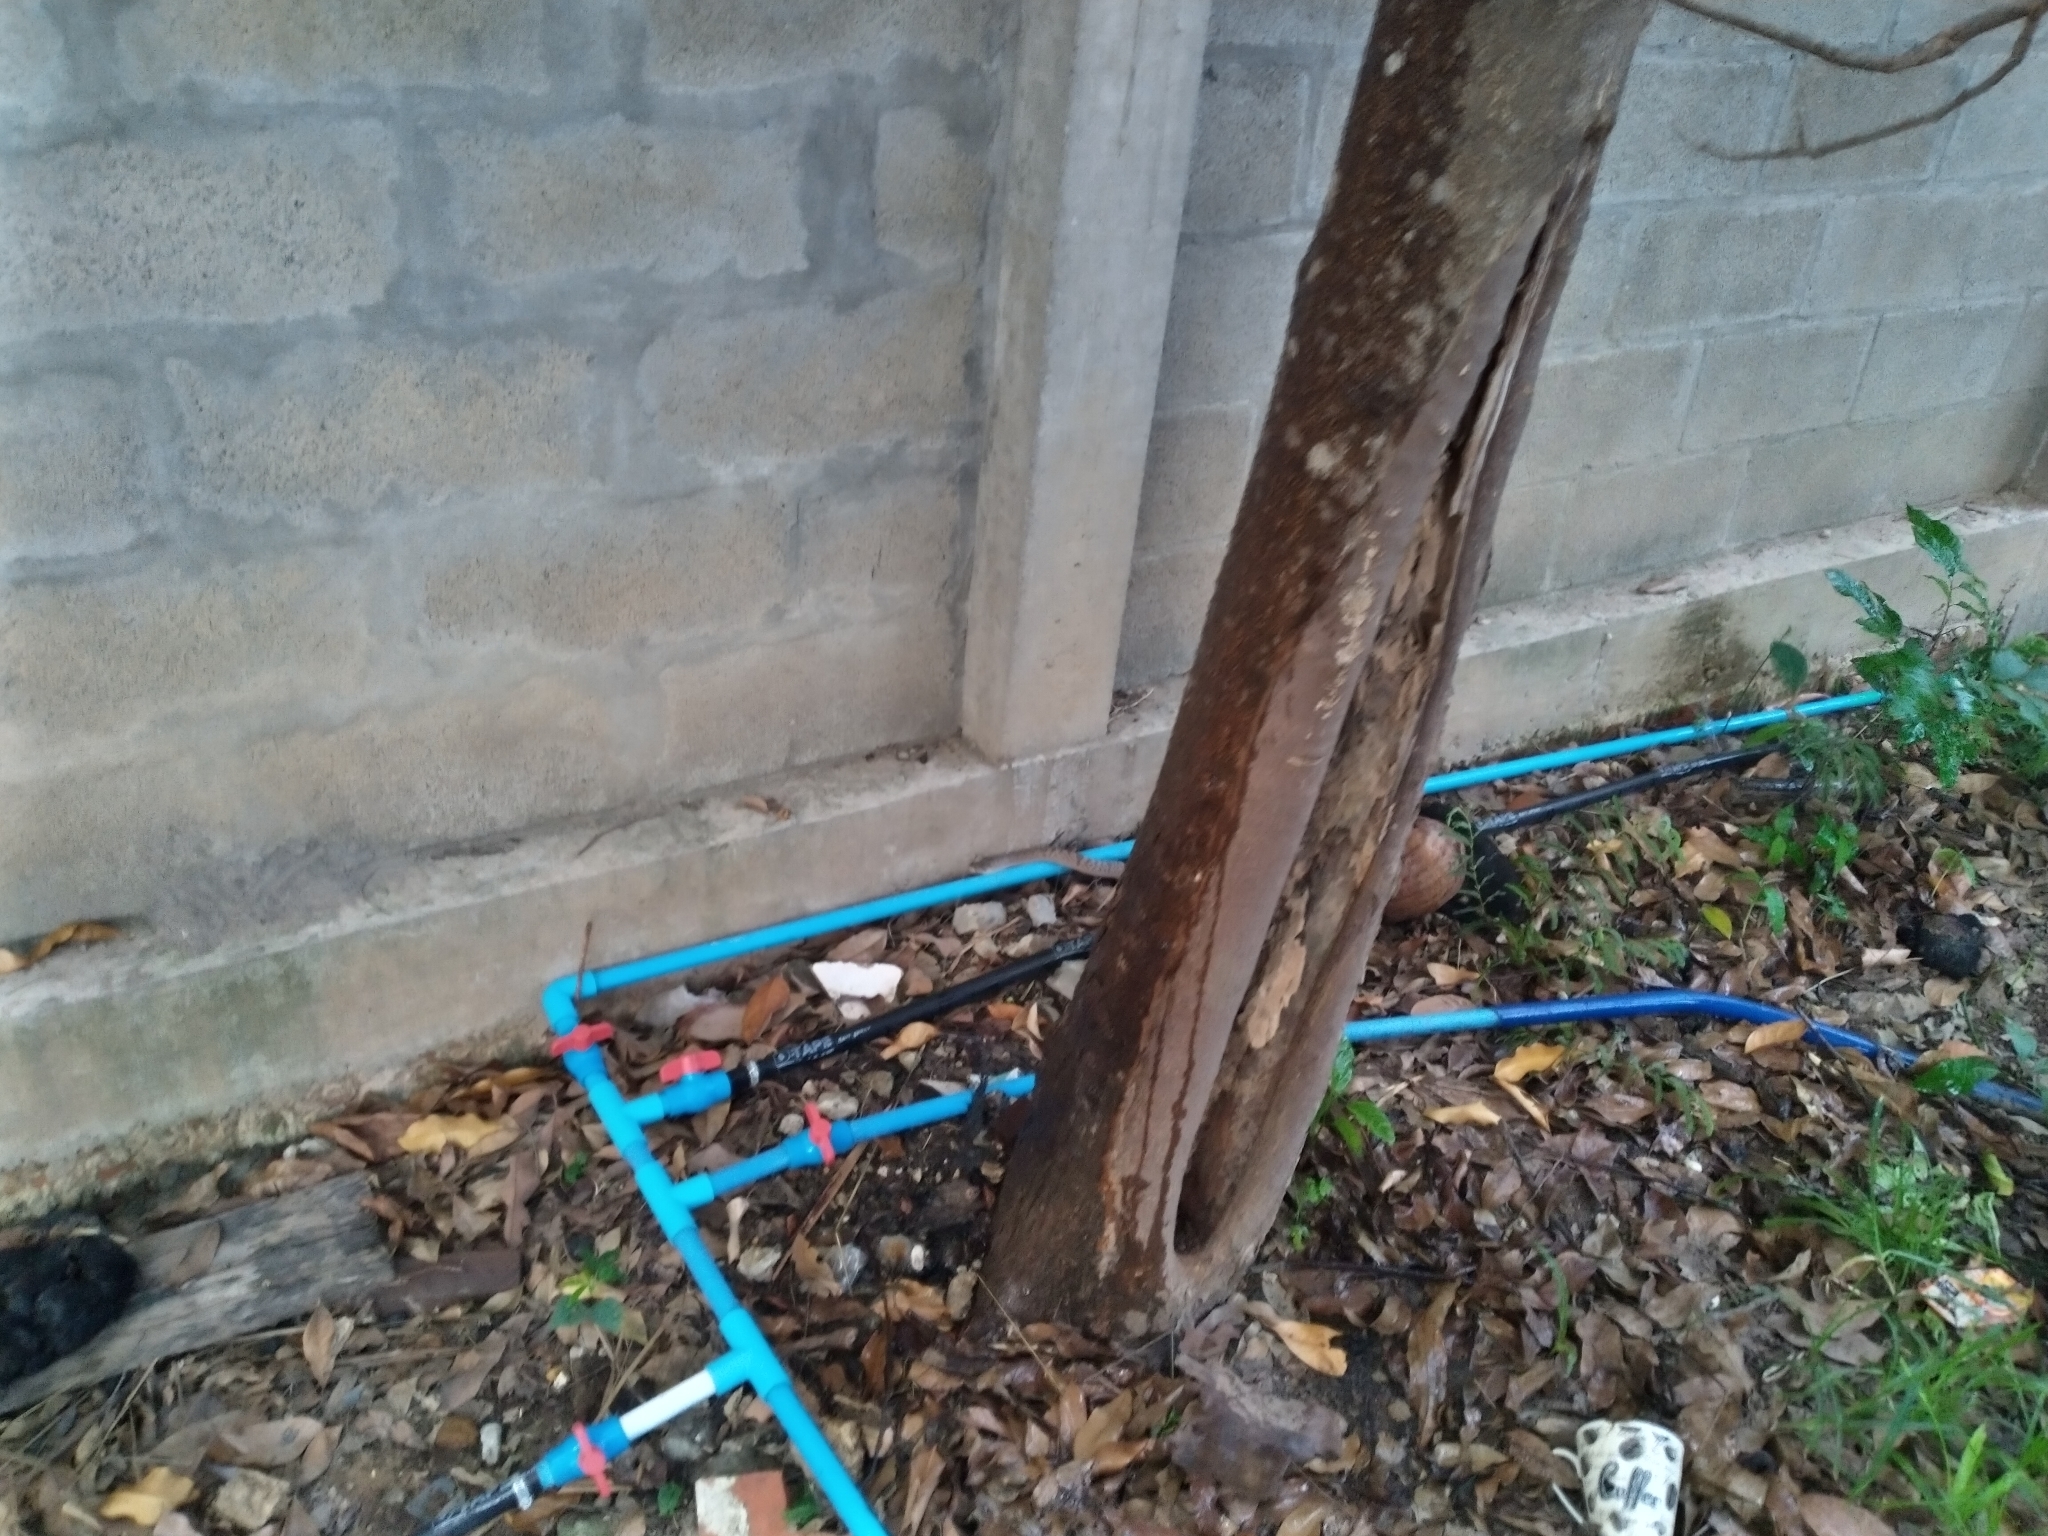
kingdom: Animalia
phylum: Chordata
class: Squamata
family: Colubridae
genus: Oligodon
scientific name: Oligodon fasciolatus
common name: Fasciolated kukri snake
